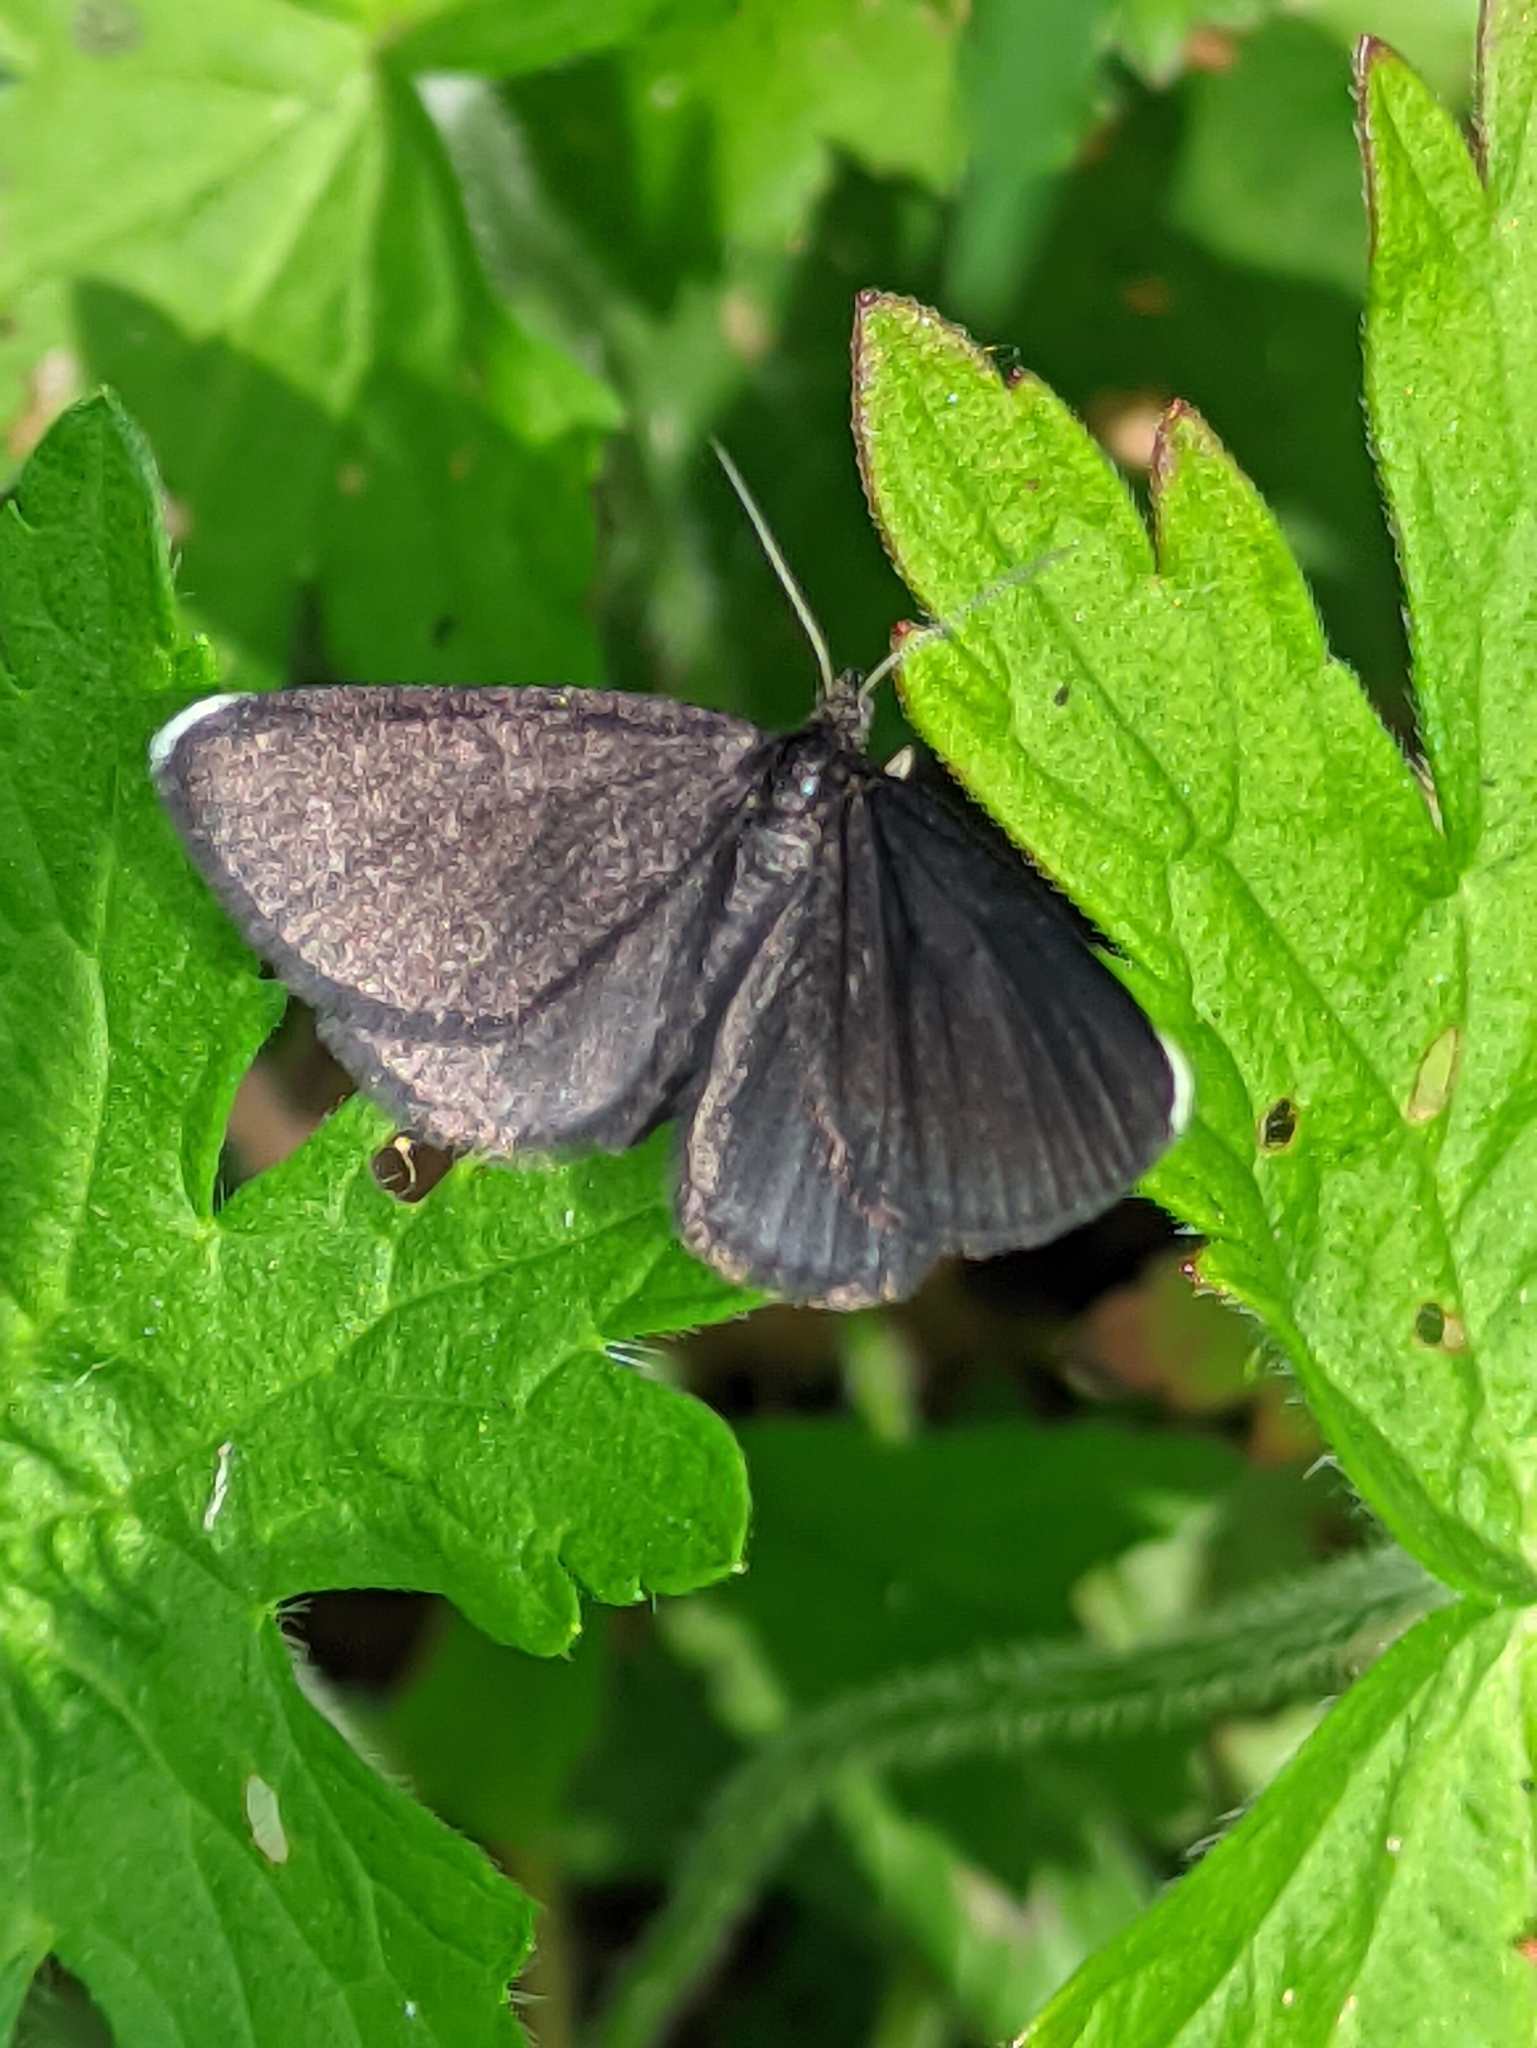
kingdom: Animalia
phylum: Arthropoda
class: Insecta
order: Lepidoptera
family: Geometridae
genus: Odezia
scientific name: Odezia atrata
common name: Chimney sweeper
